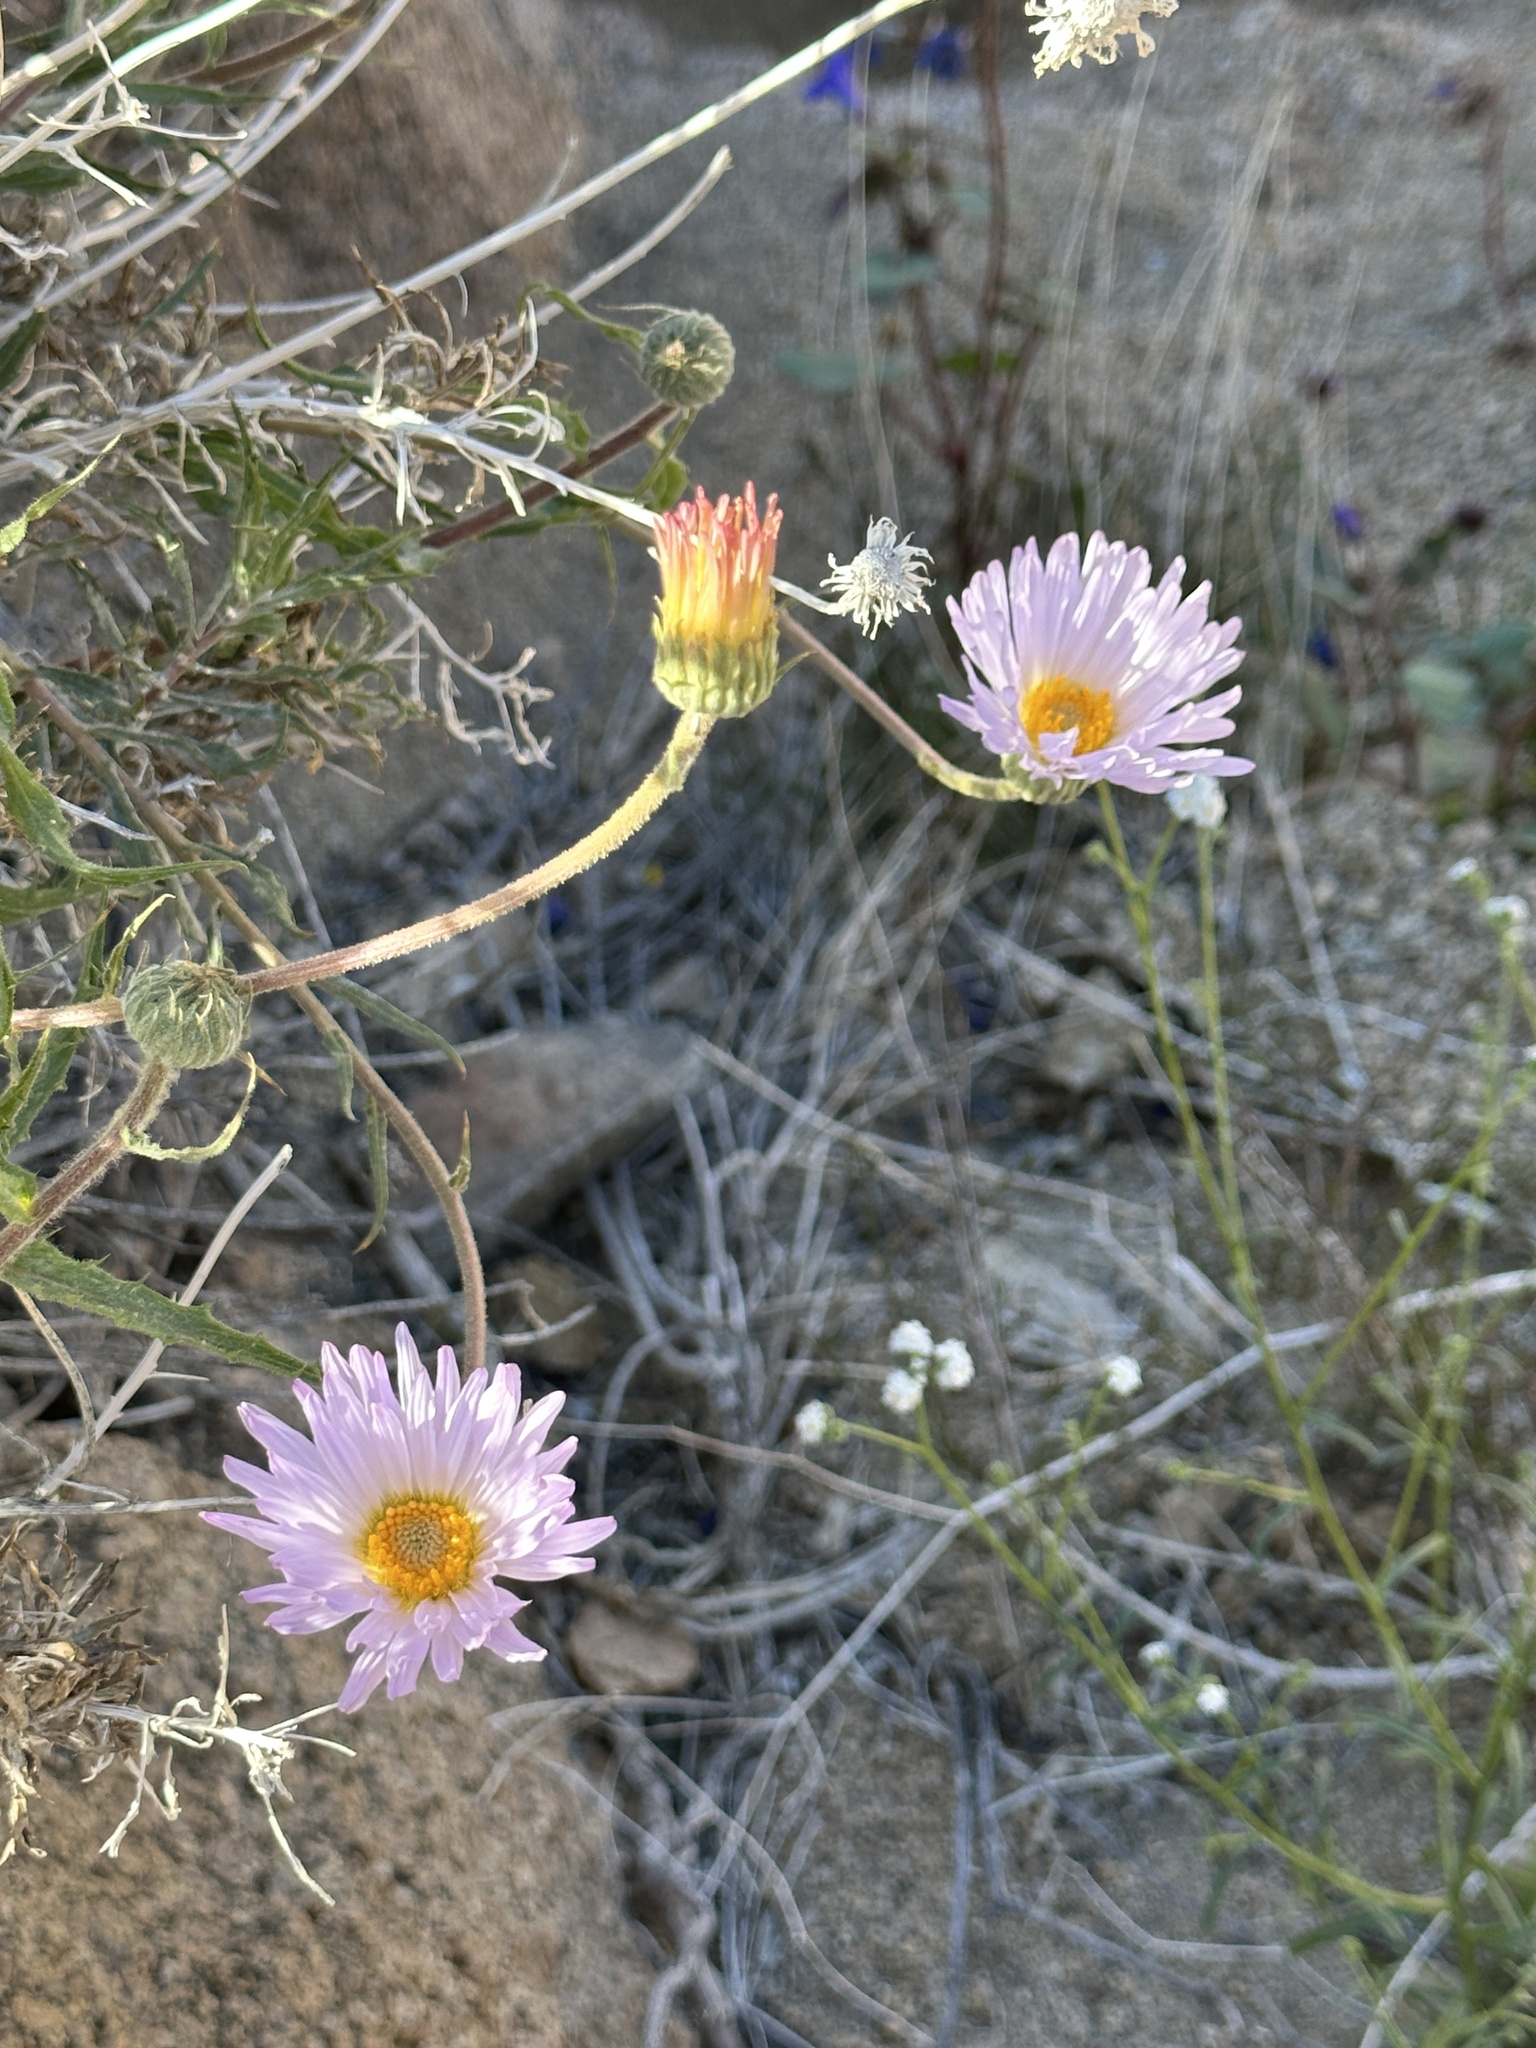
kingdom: Plantae
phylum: Tracheophyta
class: Magnoliopsida
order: Asterales
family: Asteraceae
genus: Xylorhiza
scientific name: Xylorhiza tortifolia
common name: Hurt-leaf woody-aster
